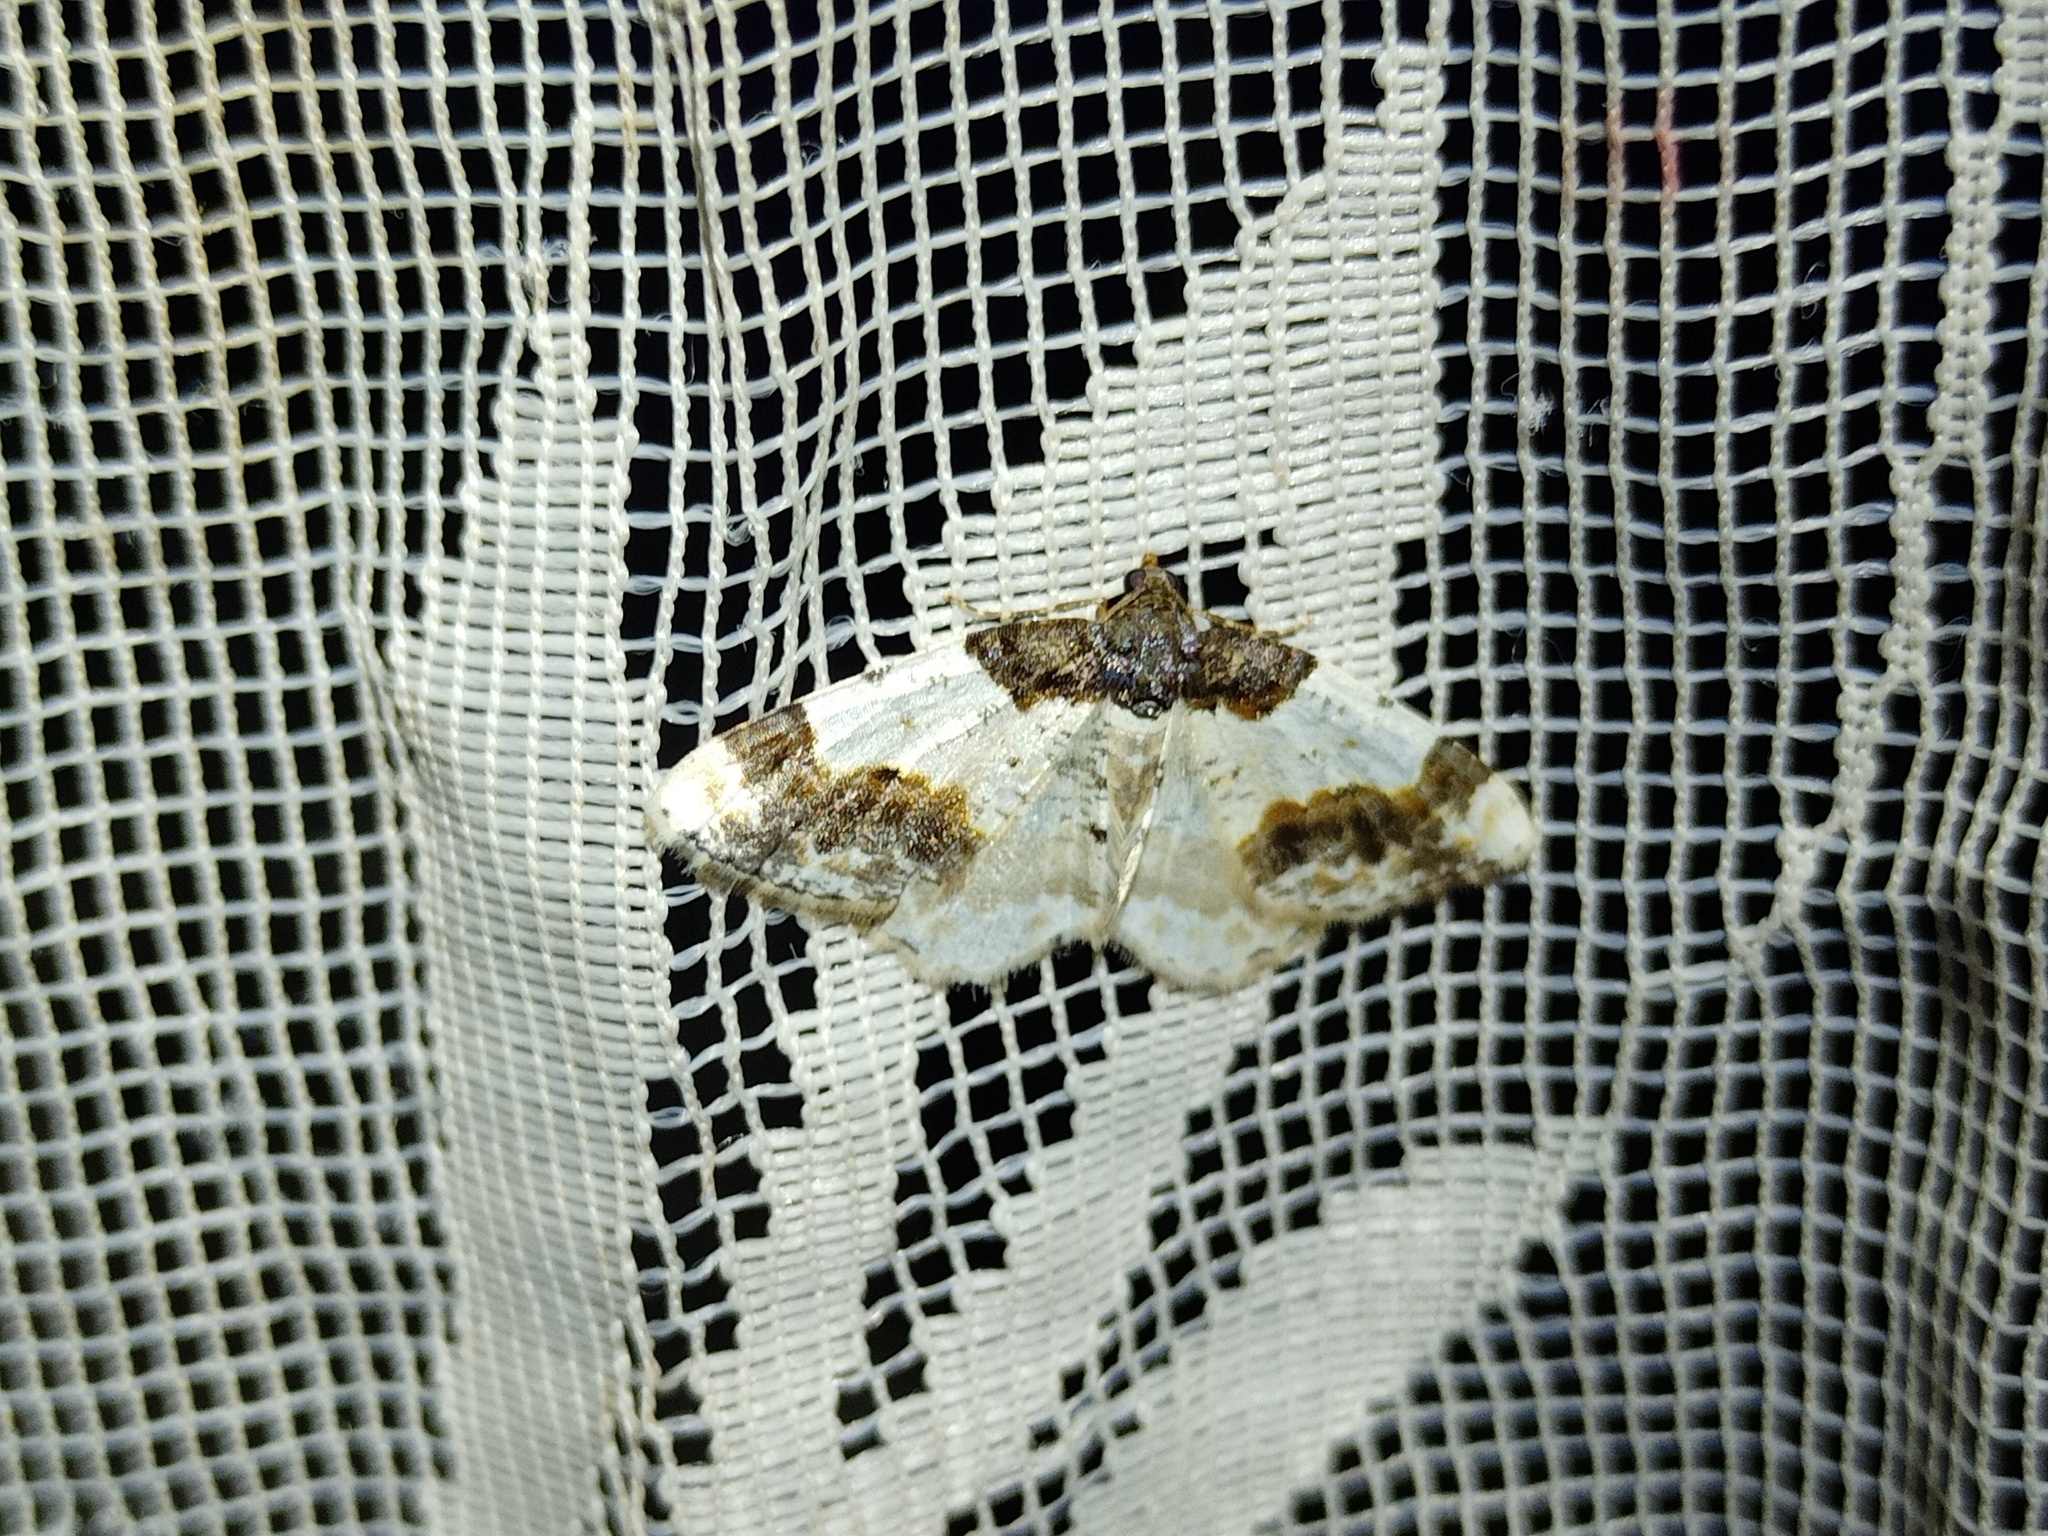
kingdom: Animalia
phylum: Arthropoda
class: Insecta
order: Lepidoptera
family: Geometridae
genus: Ligdia
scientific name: Ligdia adustata
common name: Scorched carpet
